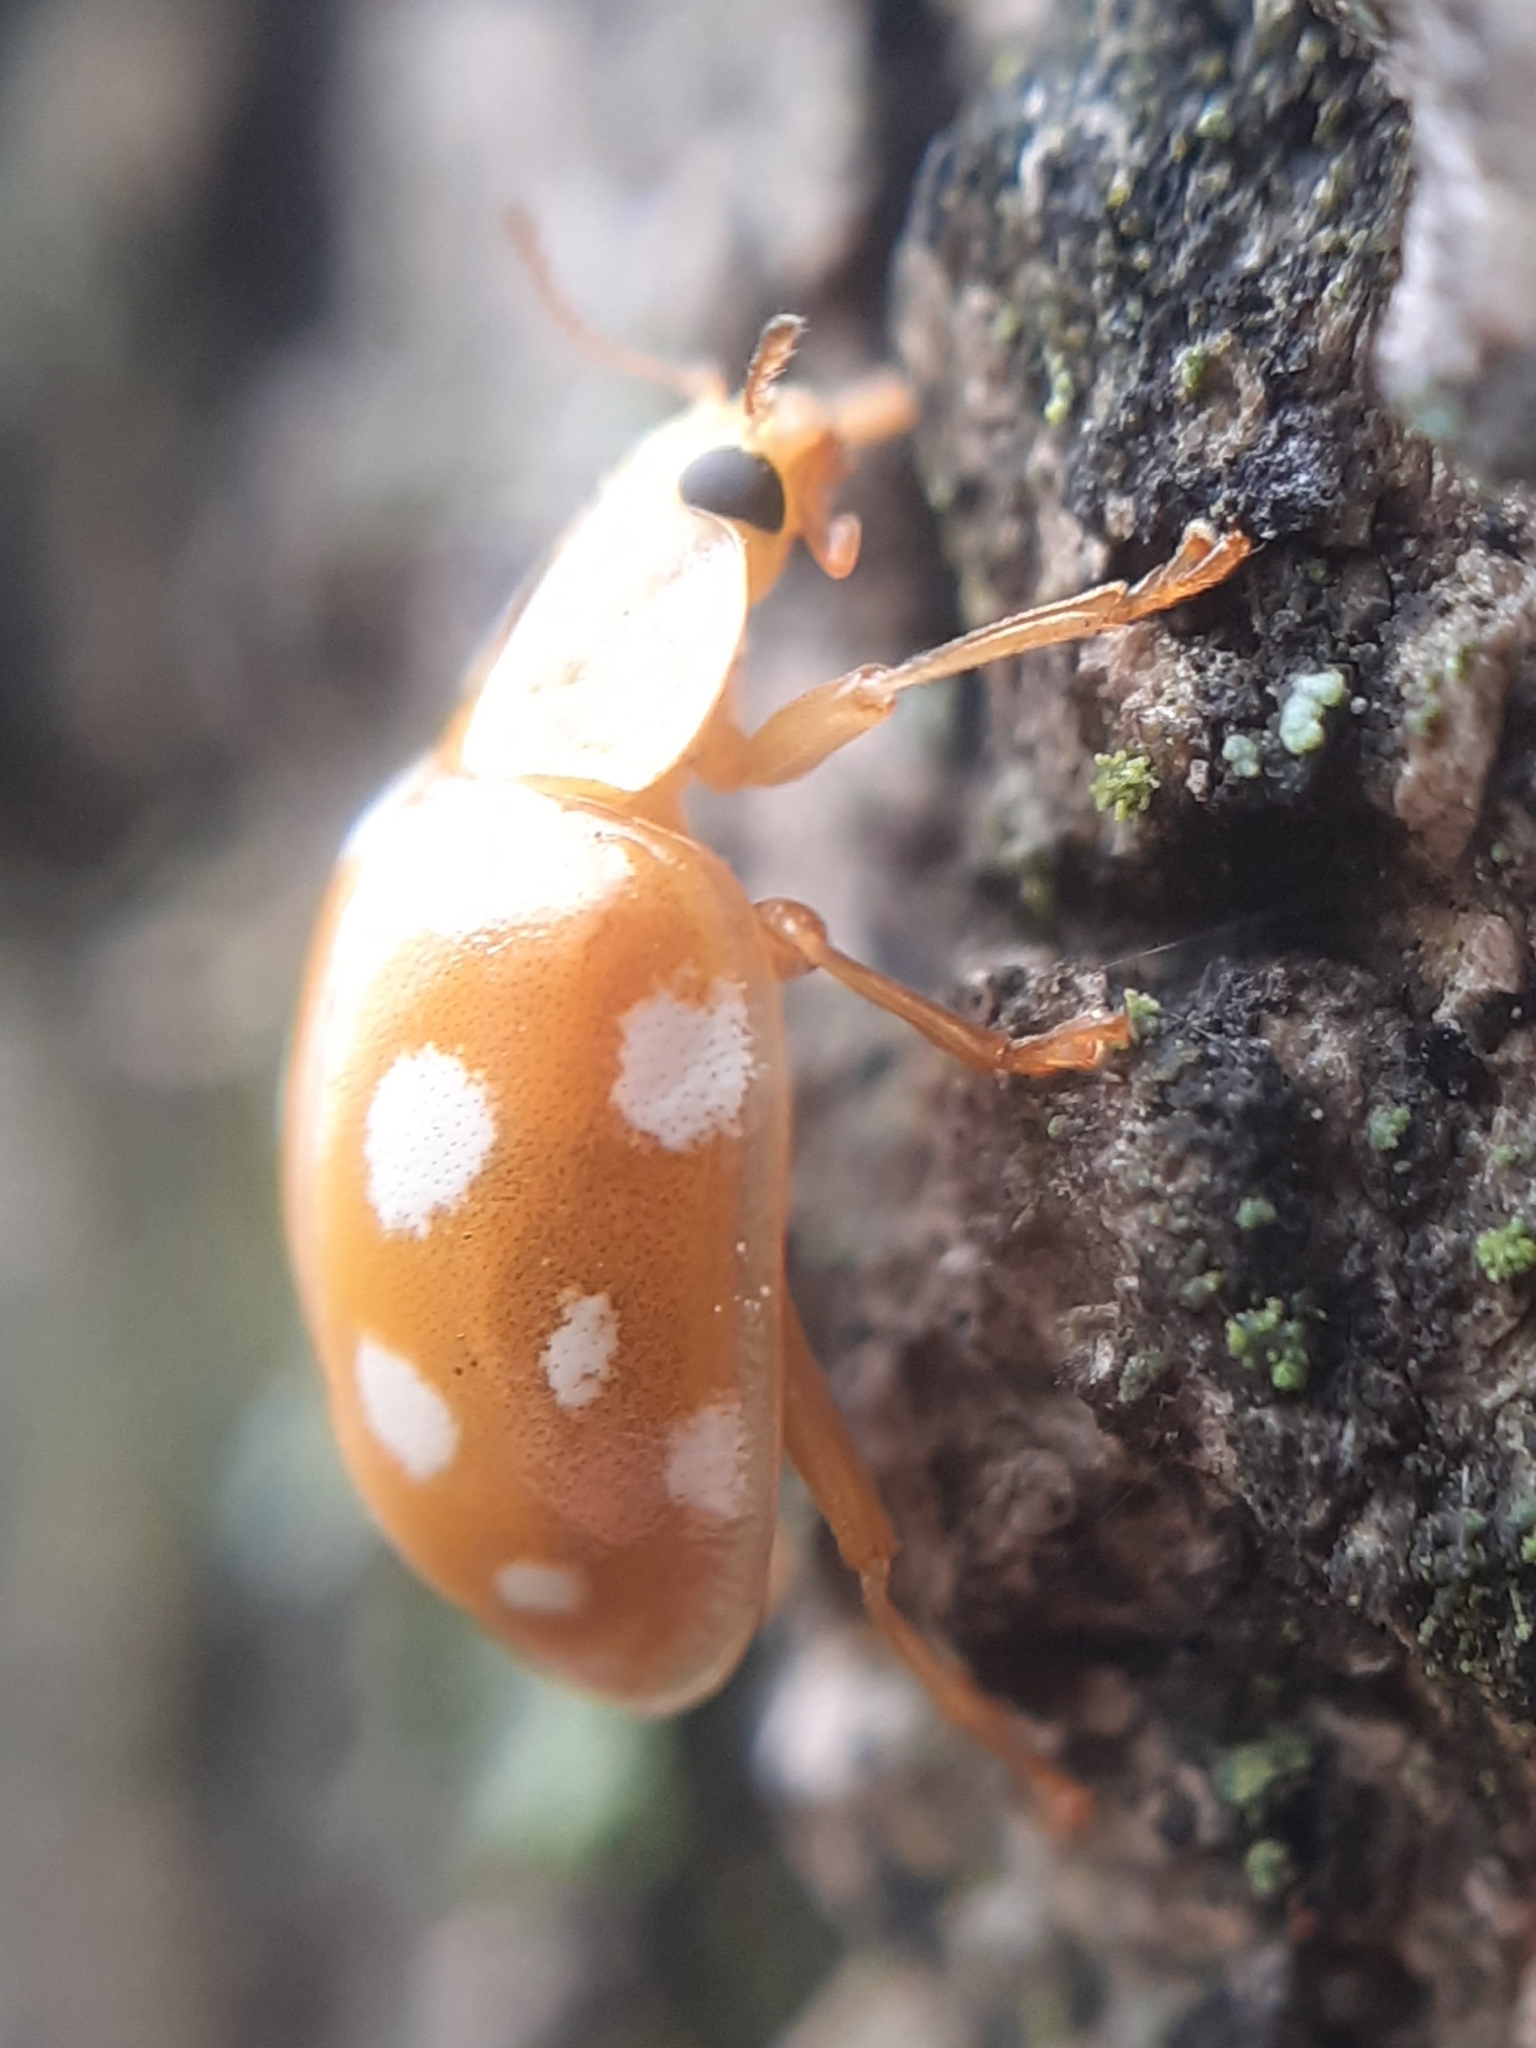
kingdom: Animalia
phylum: Arthropoda
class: Insecta
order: Coleoptera
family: Coccinellidae
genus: Halyzia
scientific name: Halyzia sedecimguttata
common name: Orange ladybird
